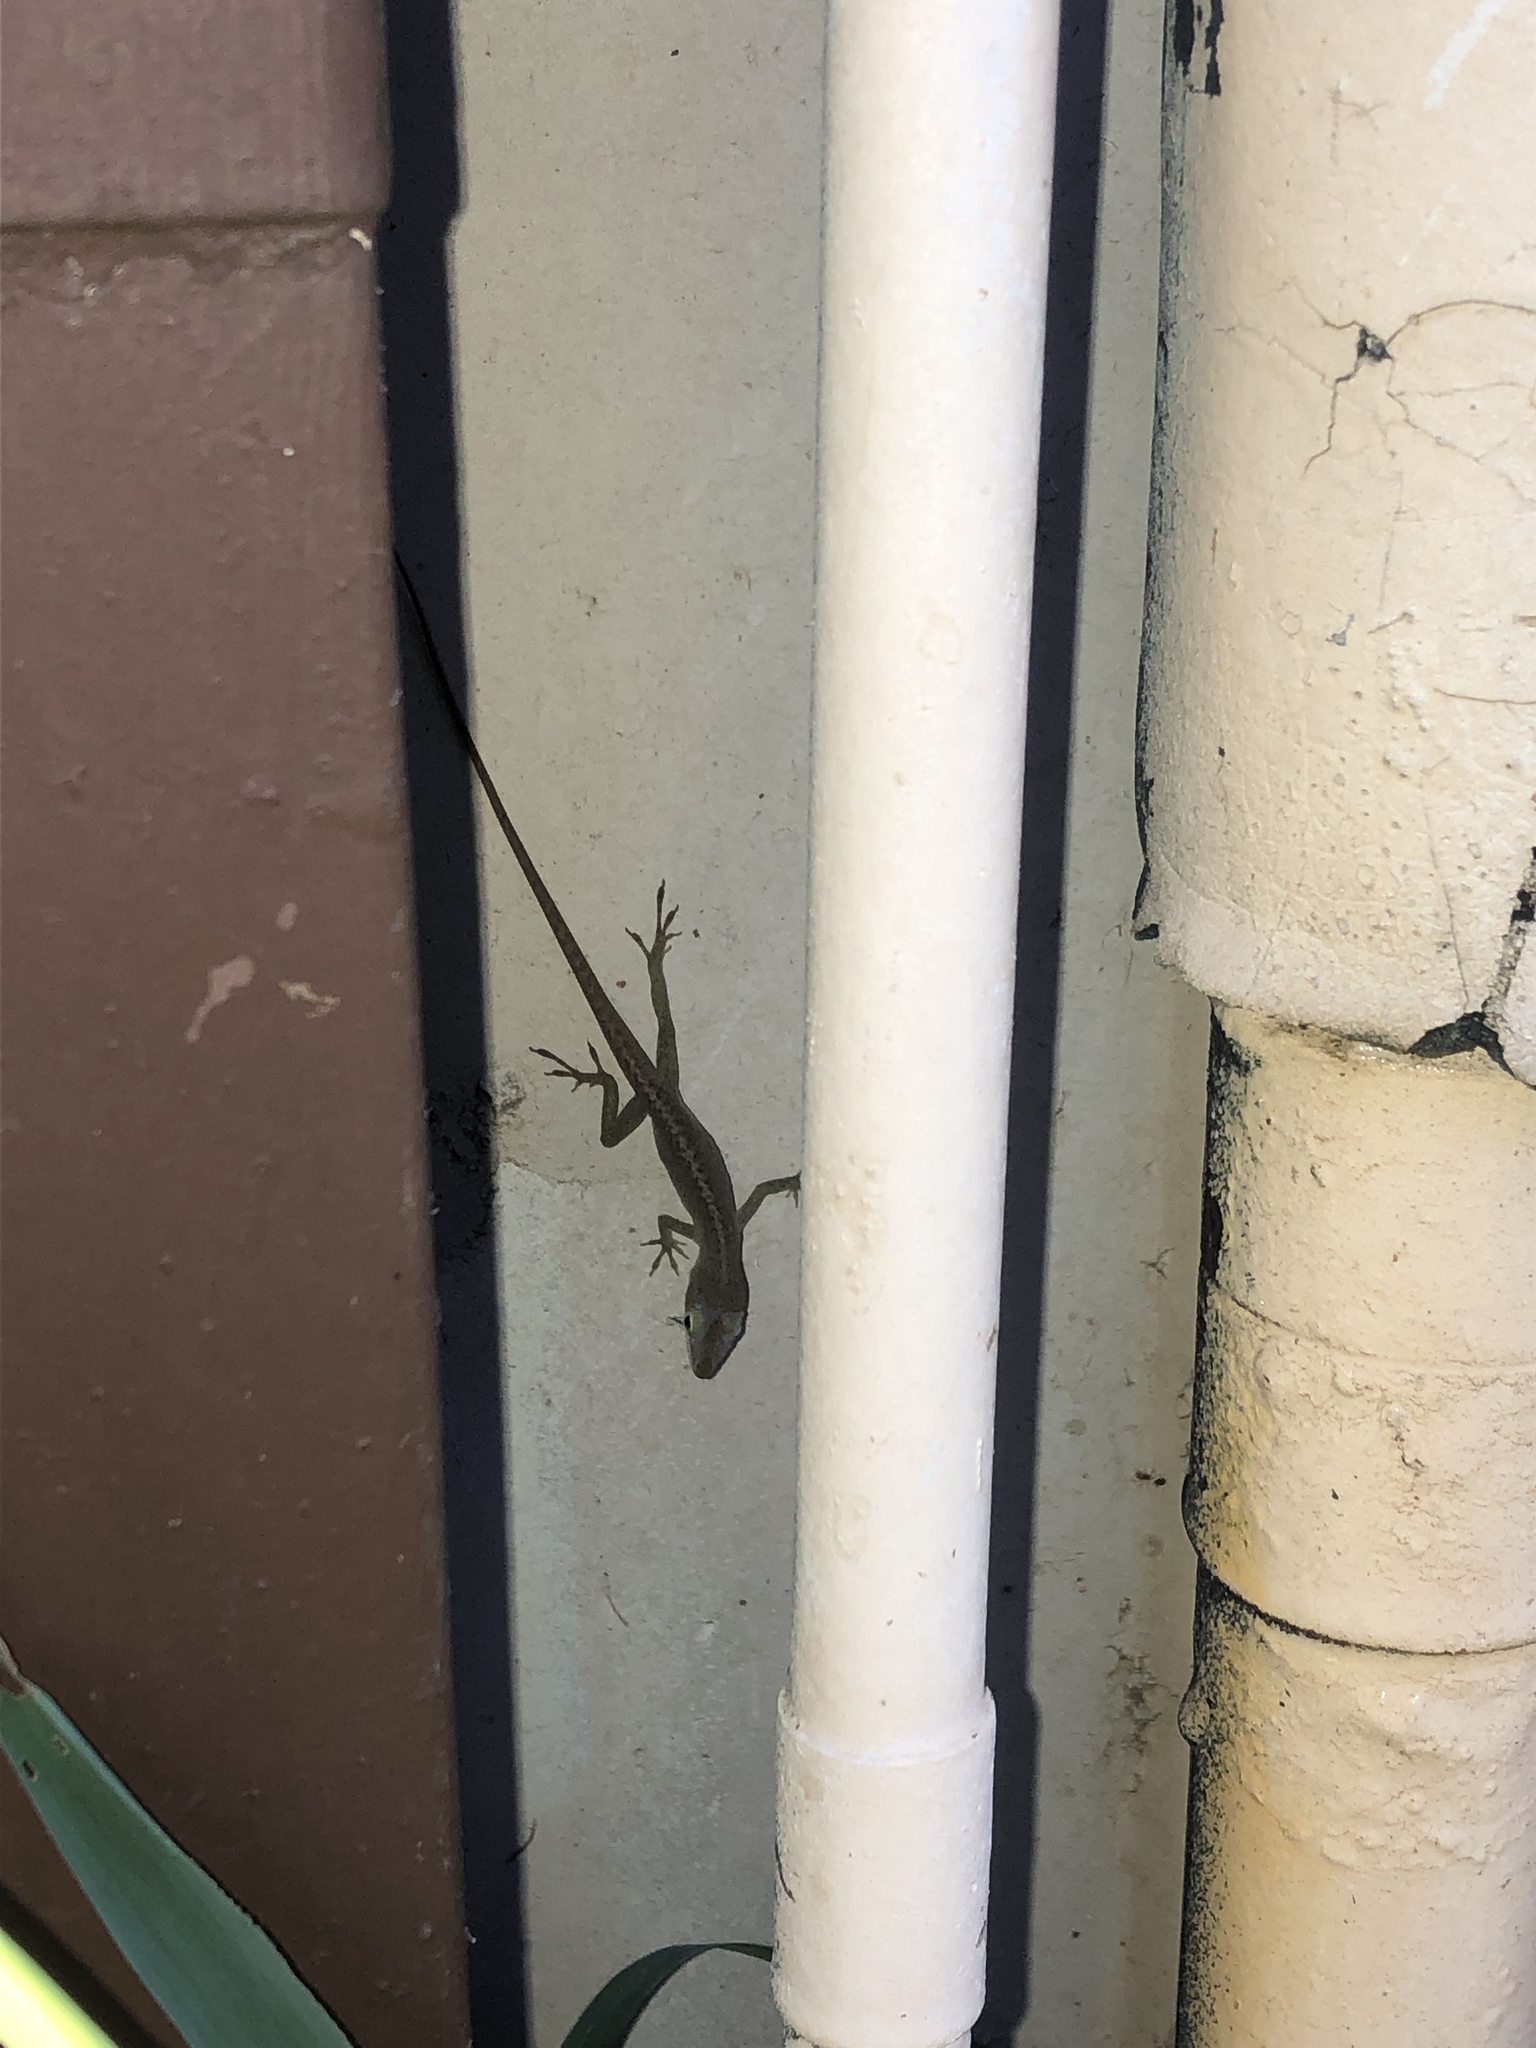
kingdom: Animalia
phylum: Chordata
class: Squamata
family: Dactyloidae
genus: Anolis
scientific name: Anolis carolinensis
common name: Green anole
